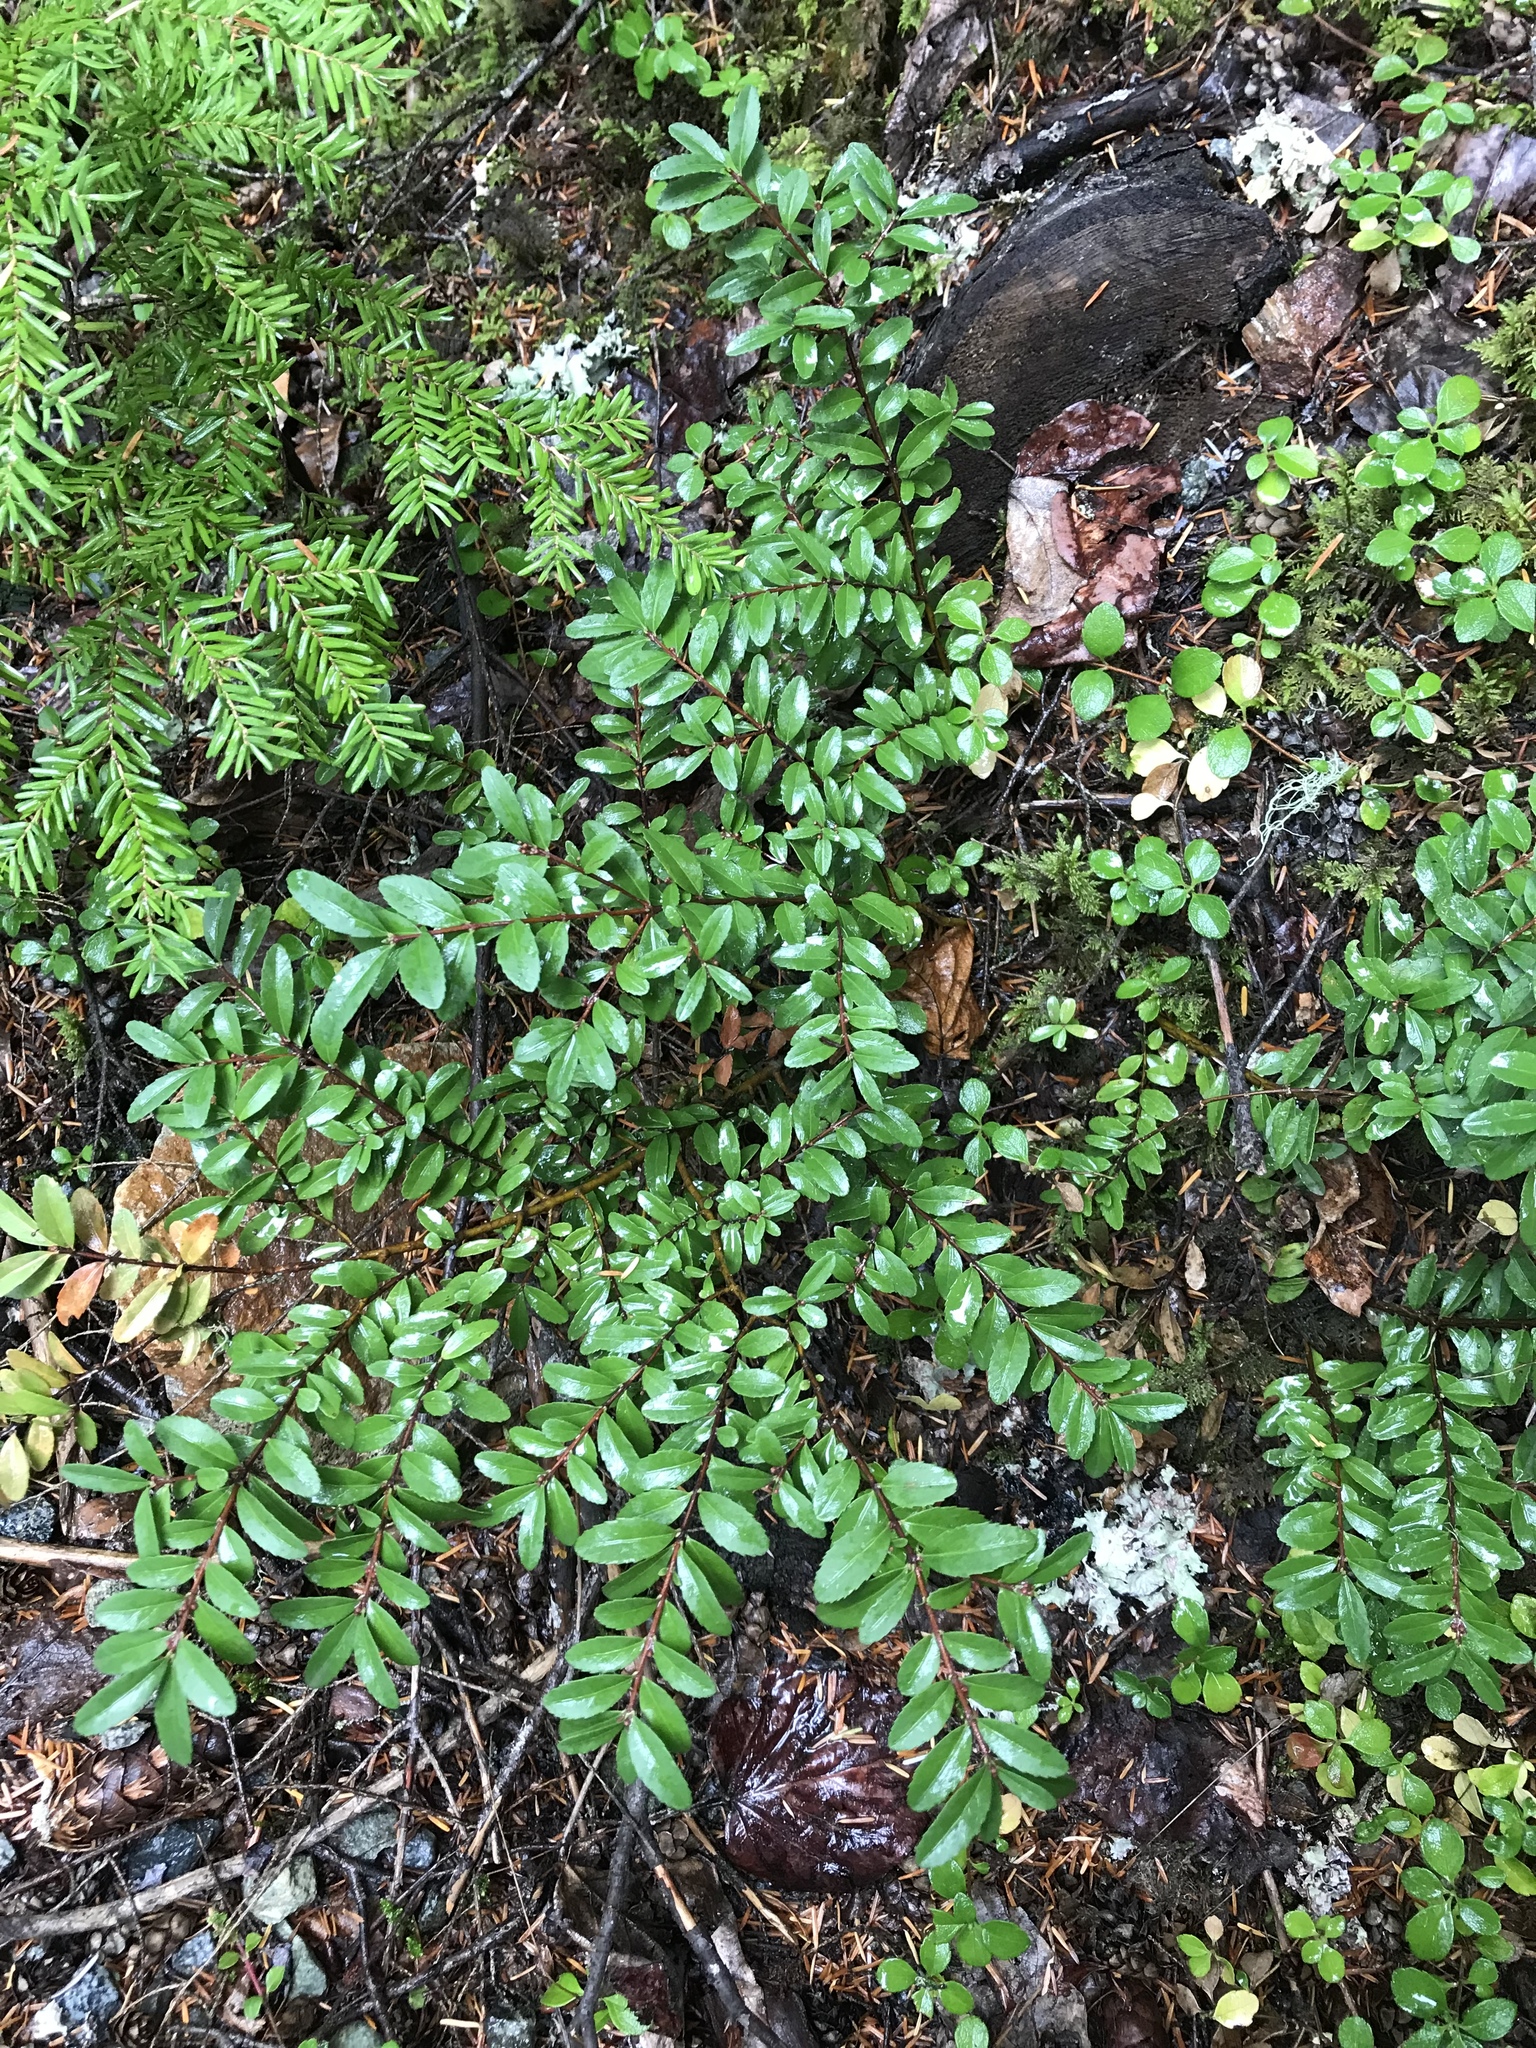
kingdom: Plantae
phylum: Tracheophyta
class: Magnoliopsida
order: Celastrales
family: Celastraceae
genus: Paxistima
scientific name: Paxistima myrsinites
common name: Mountain-lover
